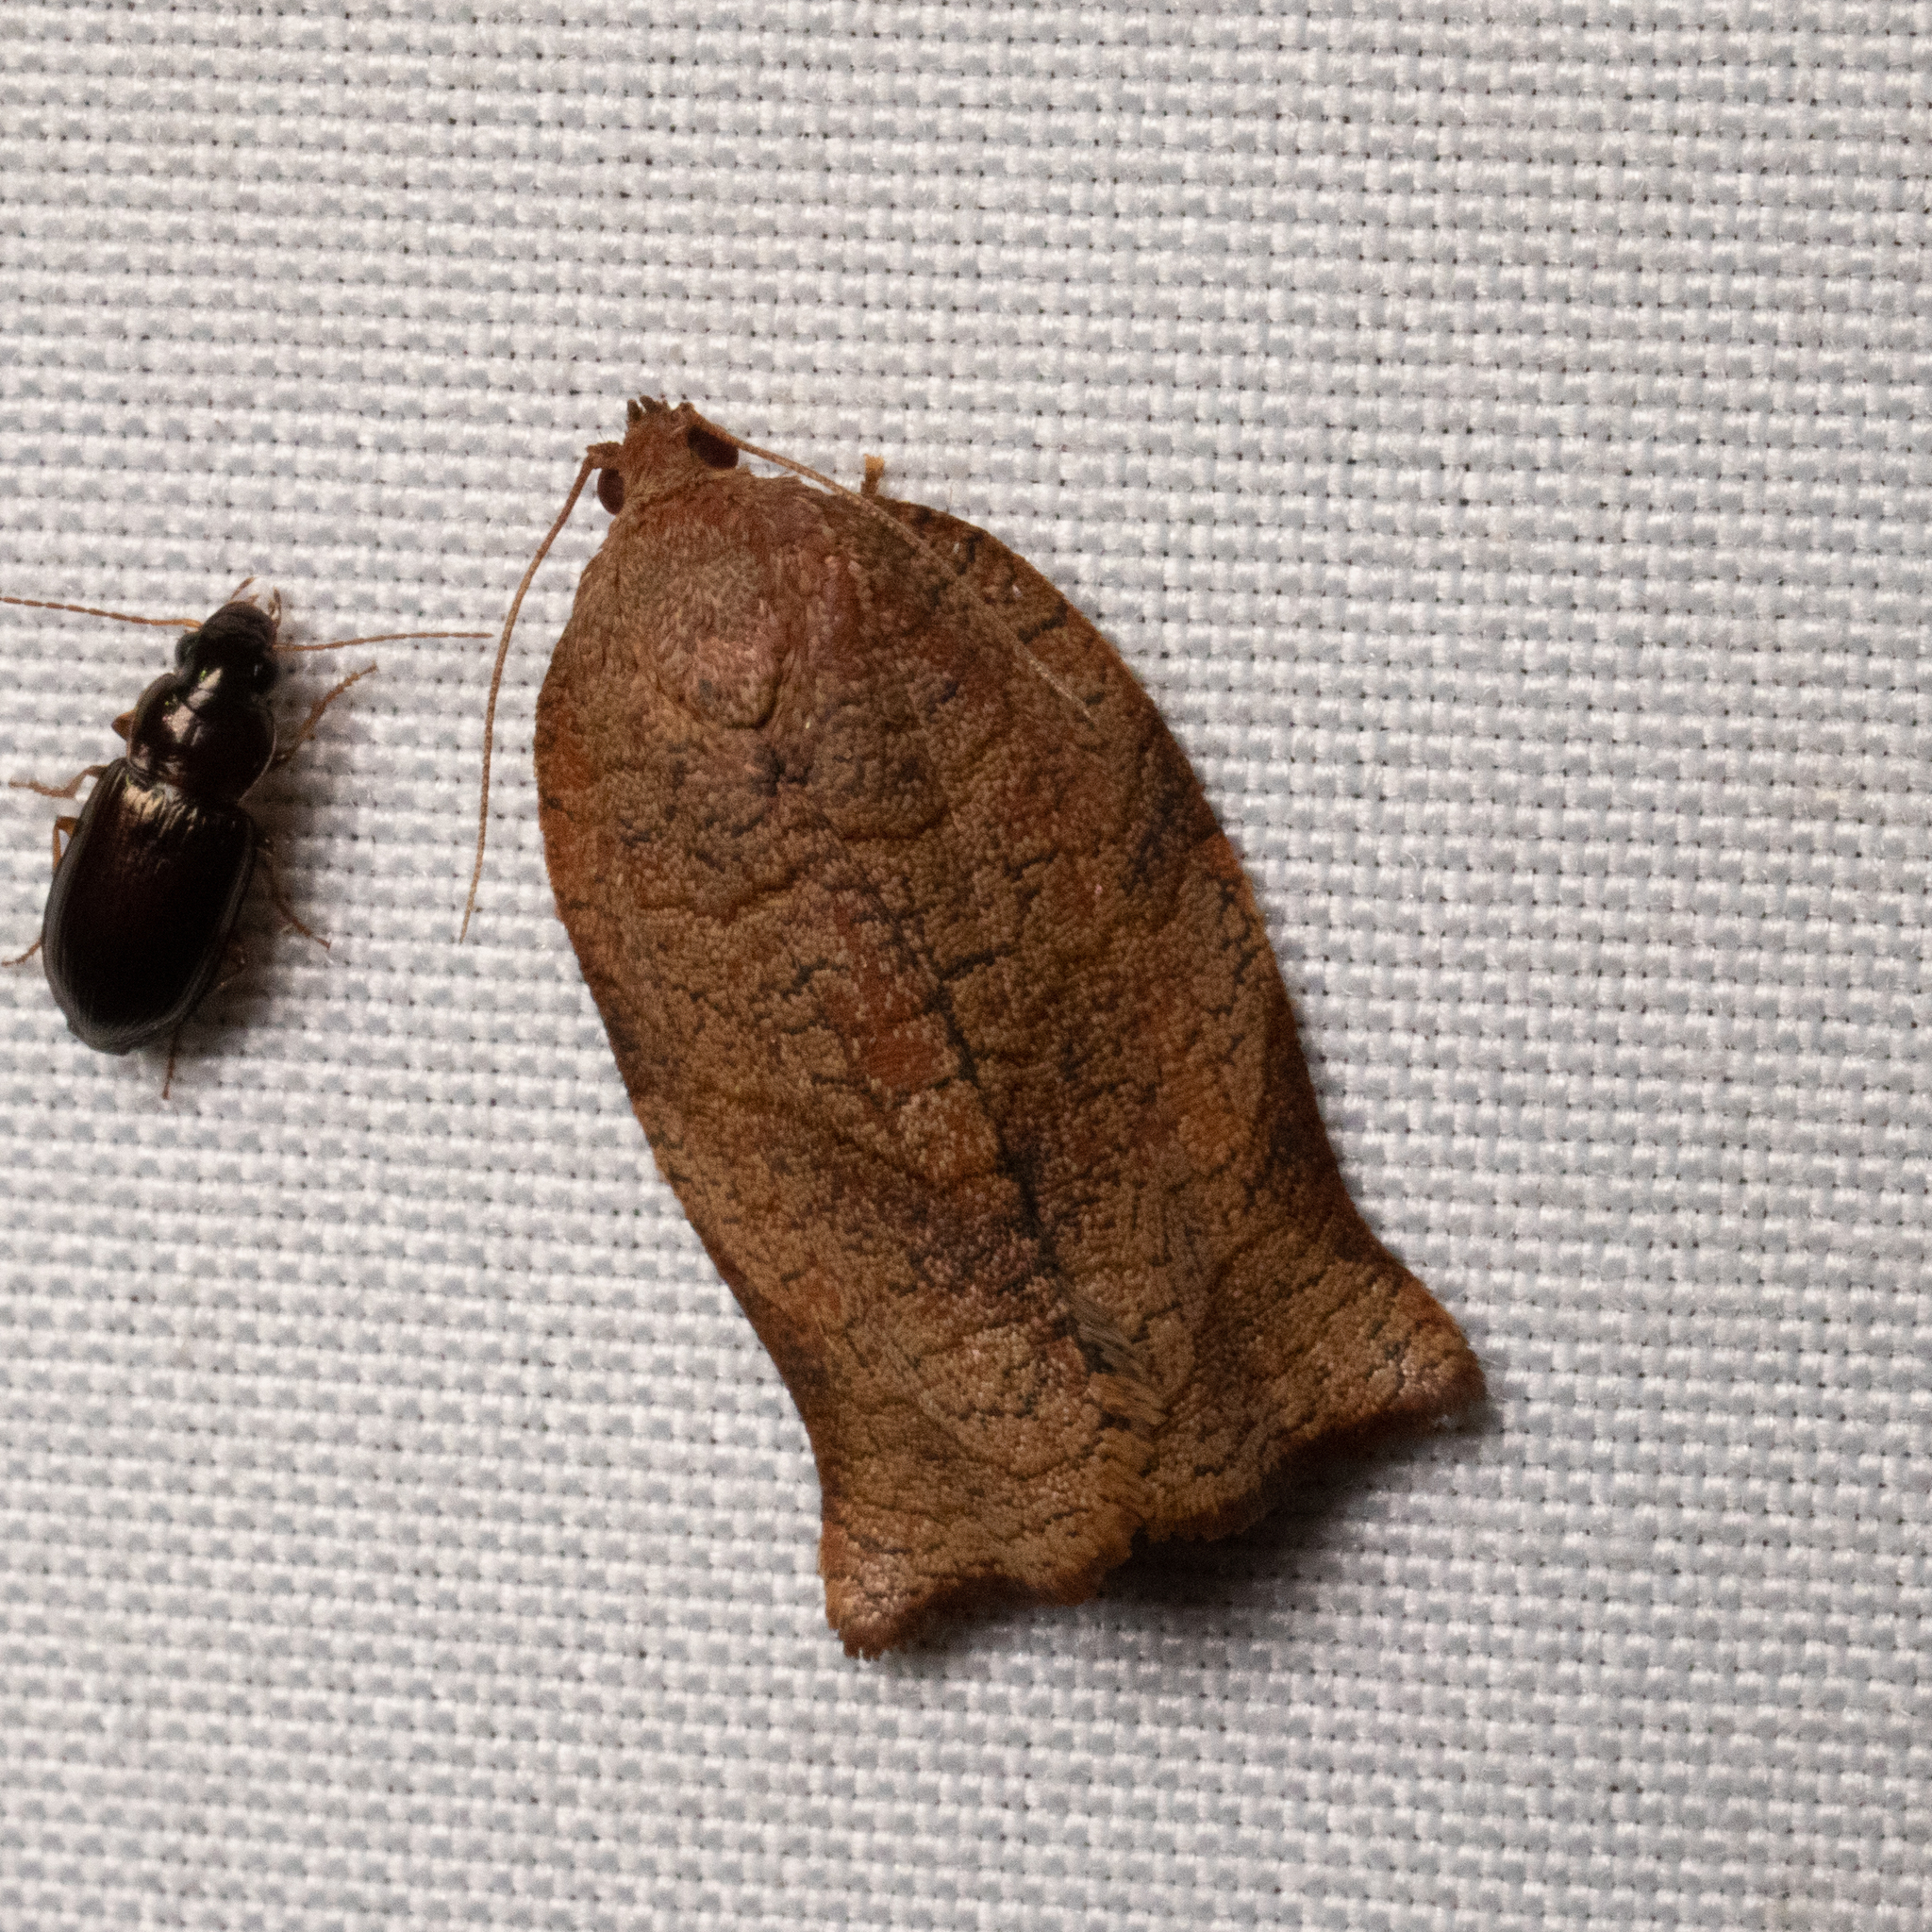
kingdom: Animalia
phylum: Arthropoda
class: Insecta
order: Lepidoptera
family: Tortricidae
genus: Choristoneura
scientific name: Choristoneura rosaceana
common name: Oblique-banded leafroller moth
